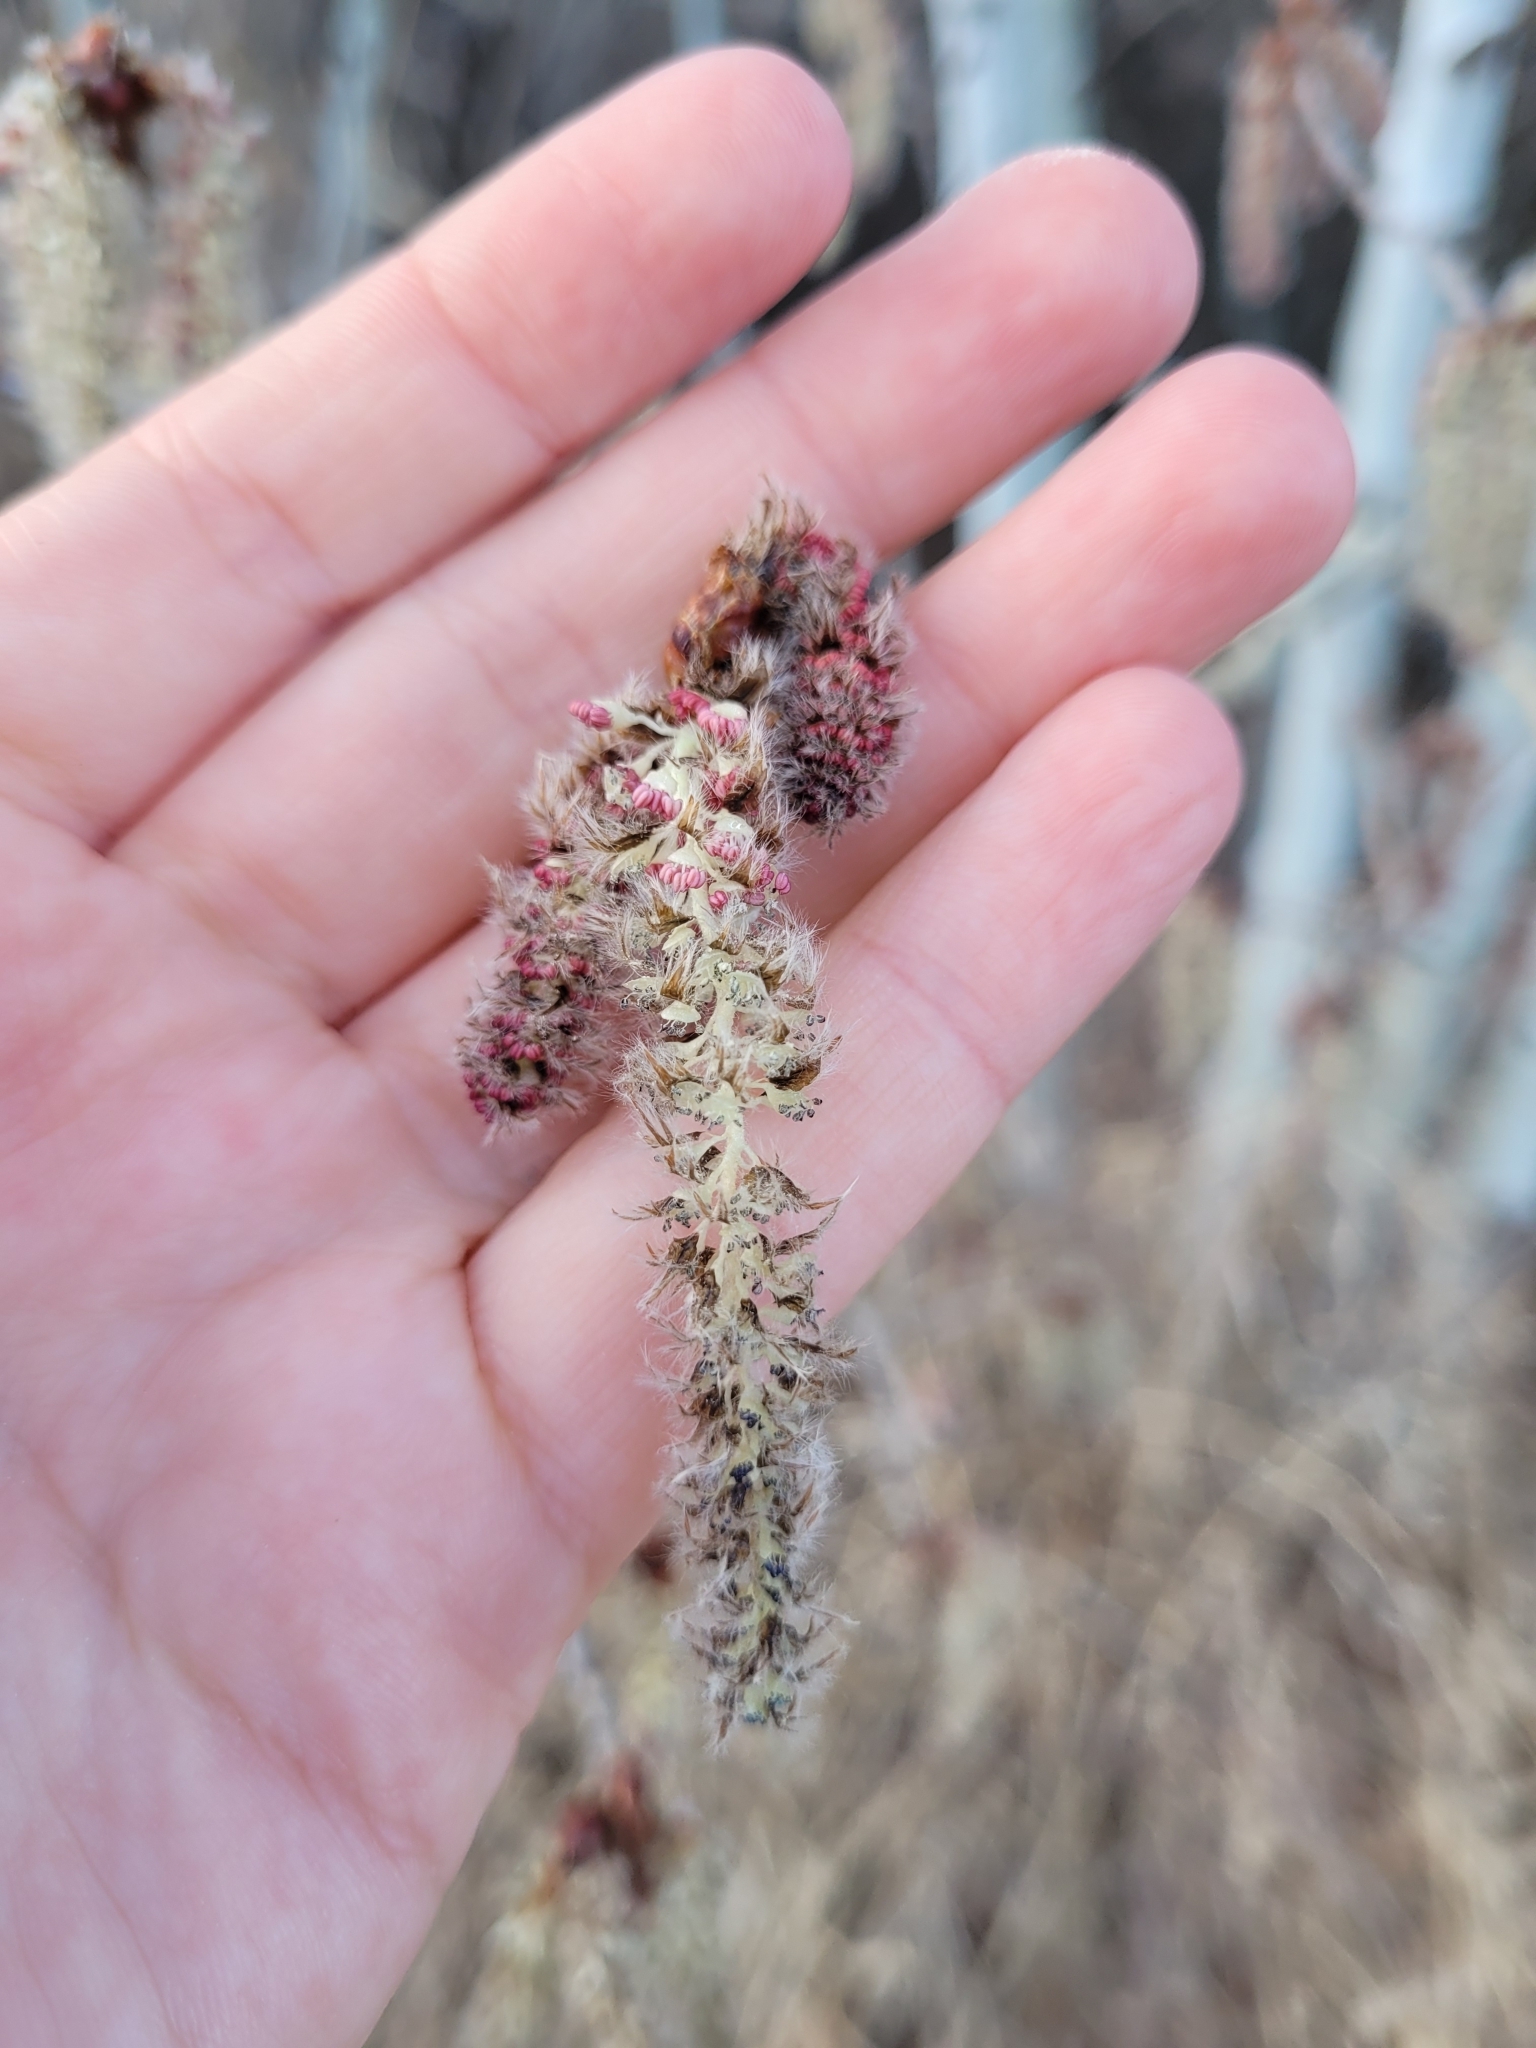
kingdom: Plantae
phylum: Tracheophyta
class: Magnoliopsida
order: Malpighiales
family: Salicaceae
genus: Populus
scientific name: Populus tremuloides
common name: Quaking aspen
